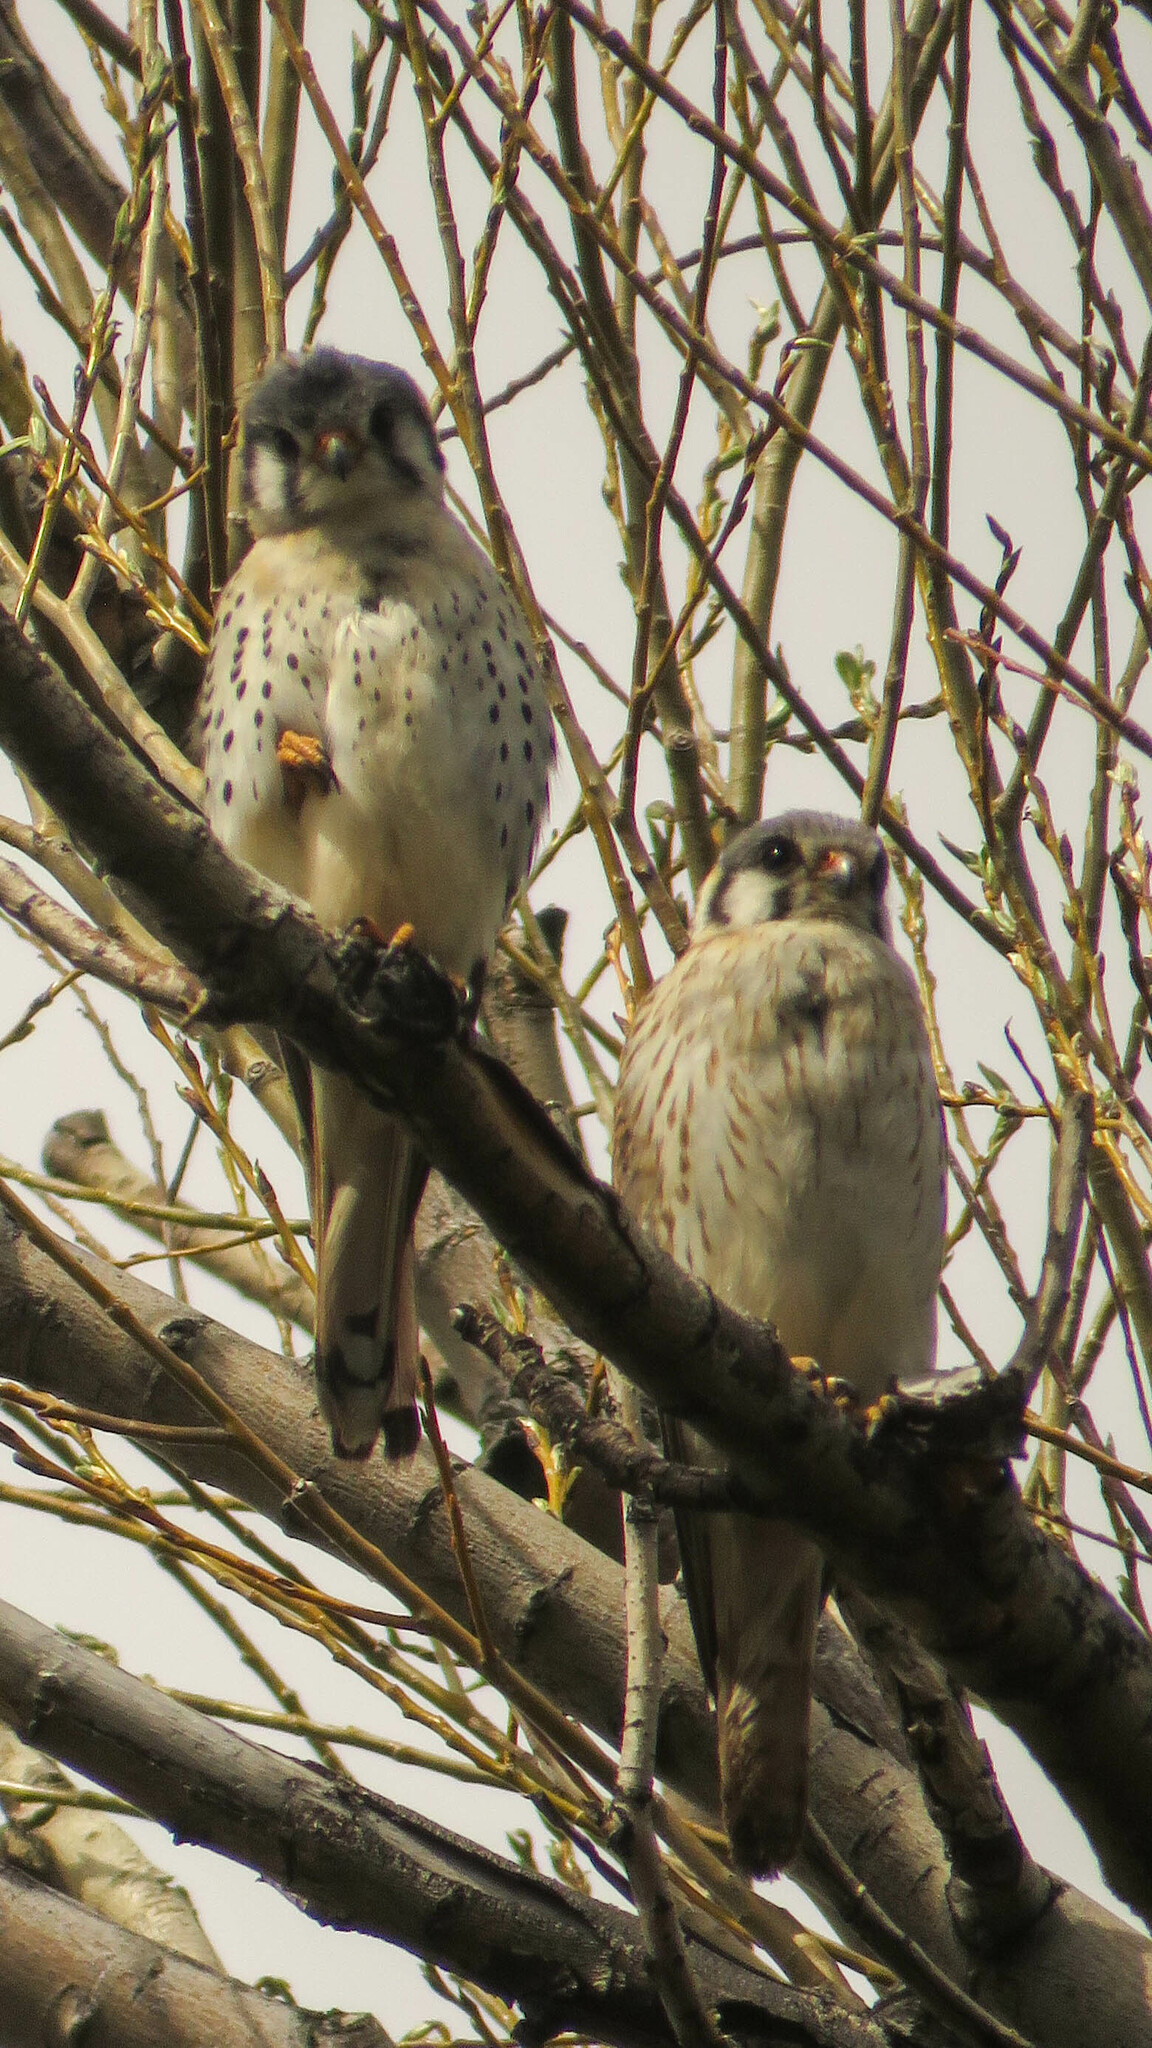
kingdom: Animalia
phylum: Chordata
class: Aves
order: Falconiformes
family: Falconidae
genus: Falco
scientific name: Falco sparverius
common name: American kestrel
